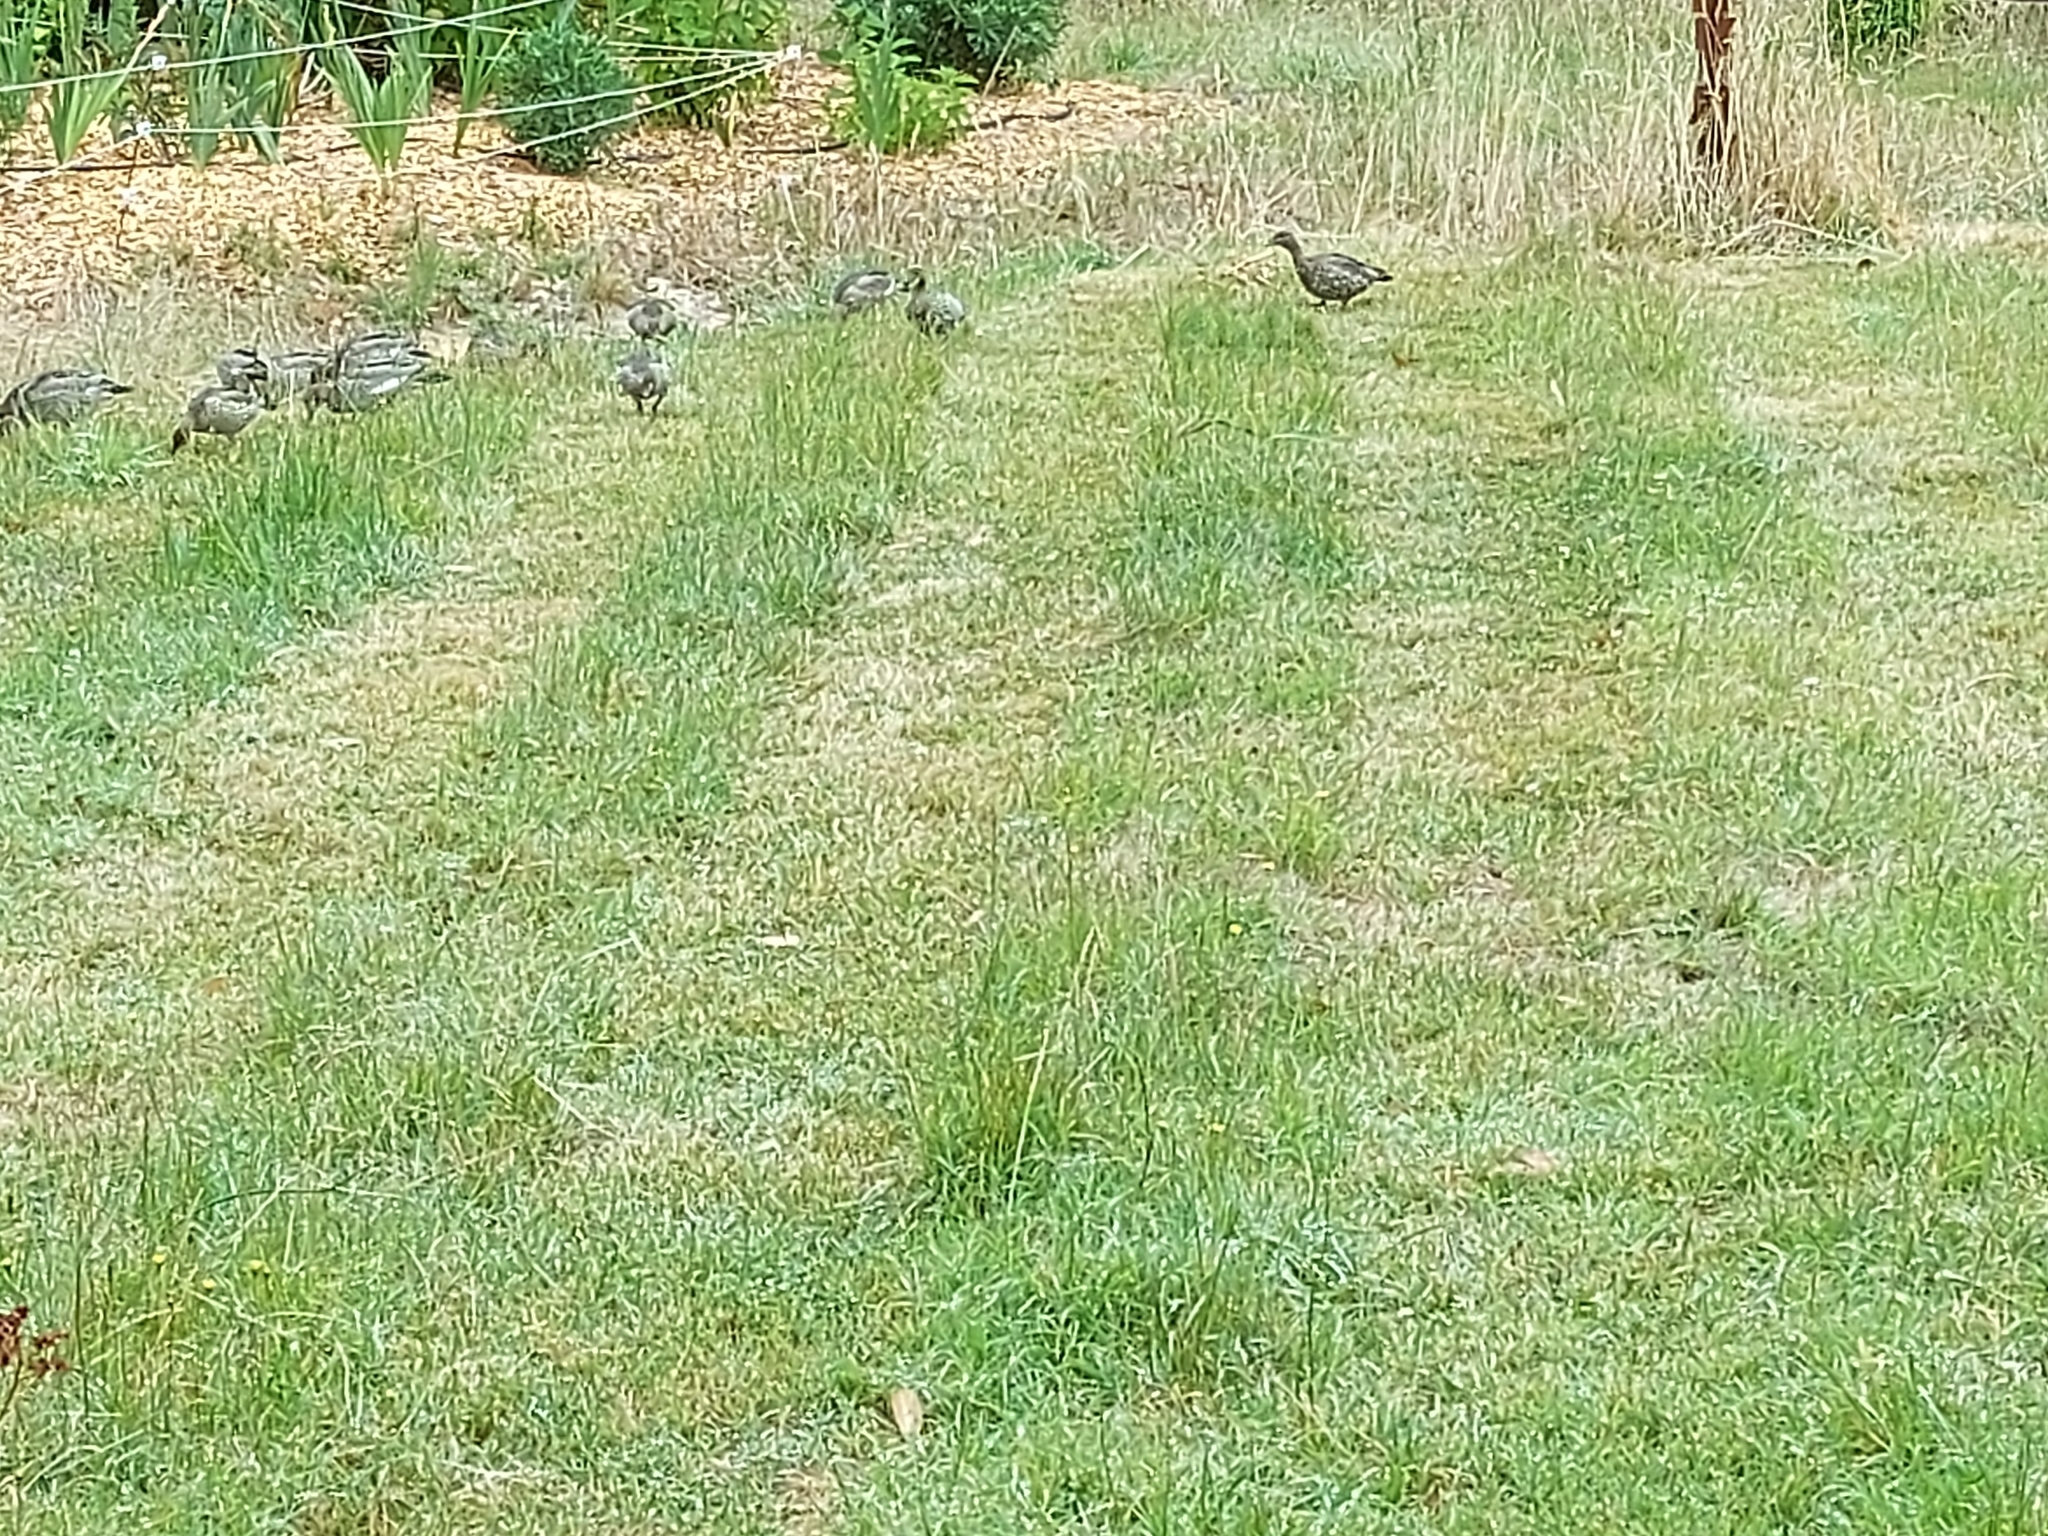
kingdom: Animalia
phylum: Chordata
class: Aves
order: Anseriformes
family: Anatidae
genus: Chenonetta
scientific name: Chenonetta jubata
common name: Maned duck
